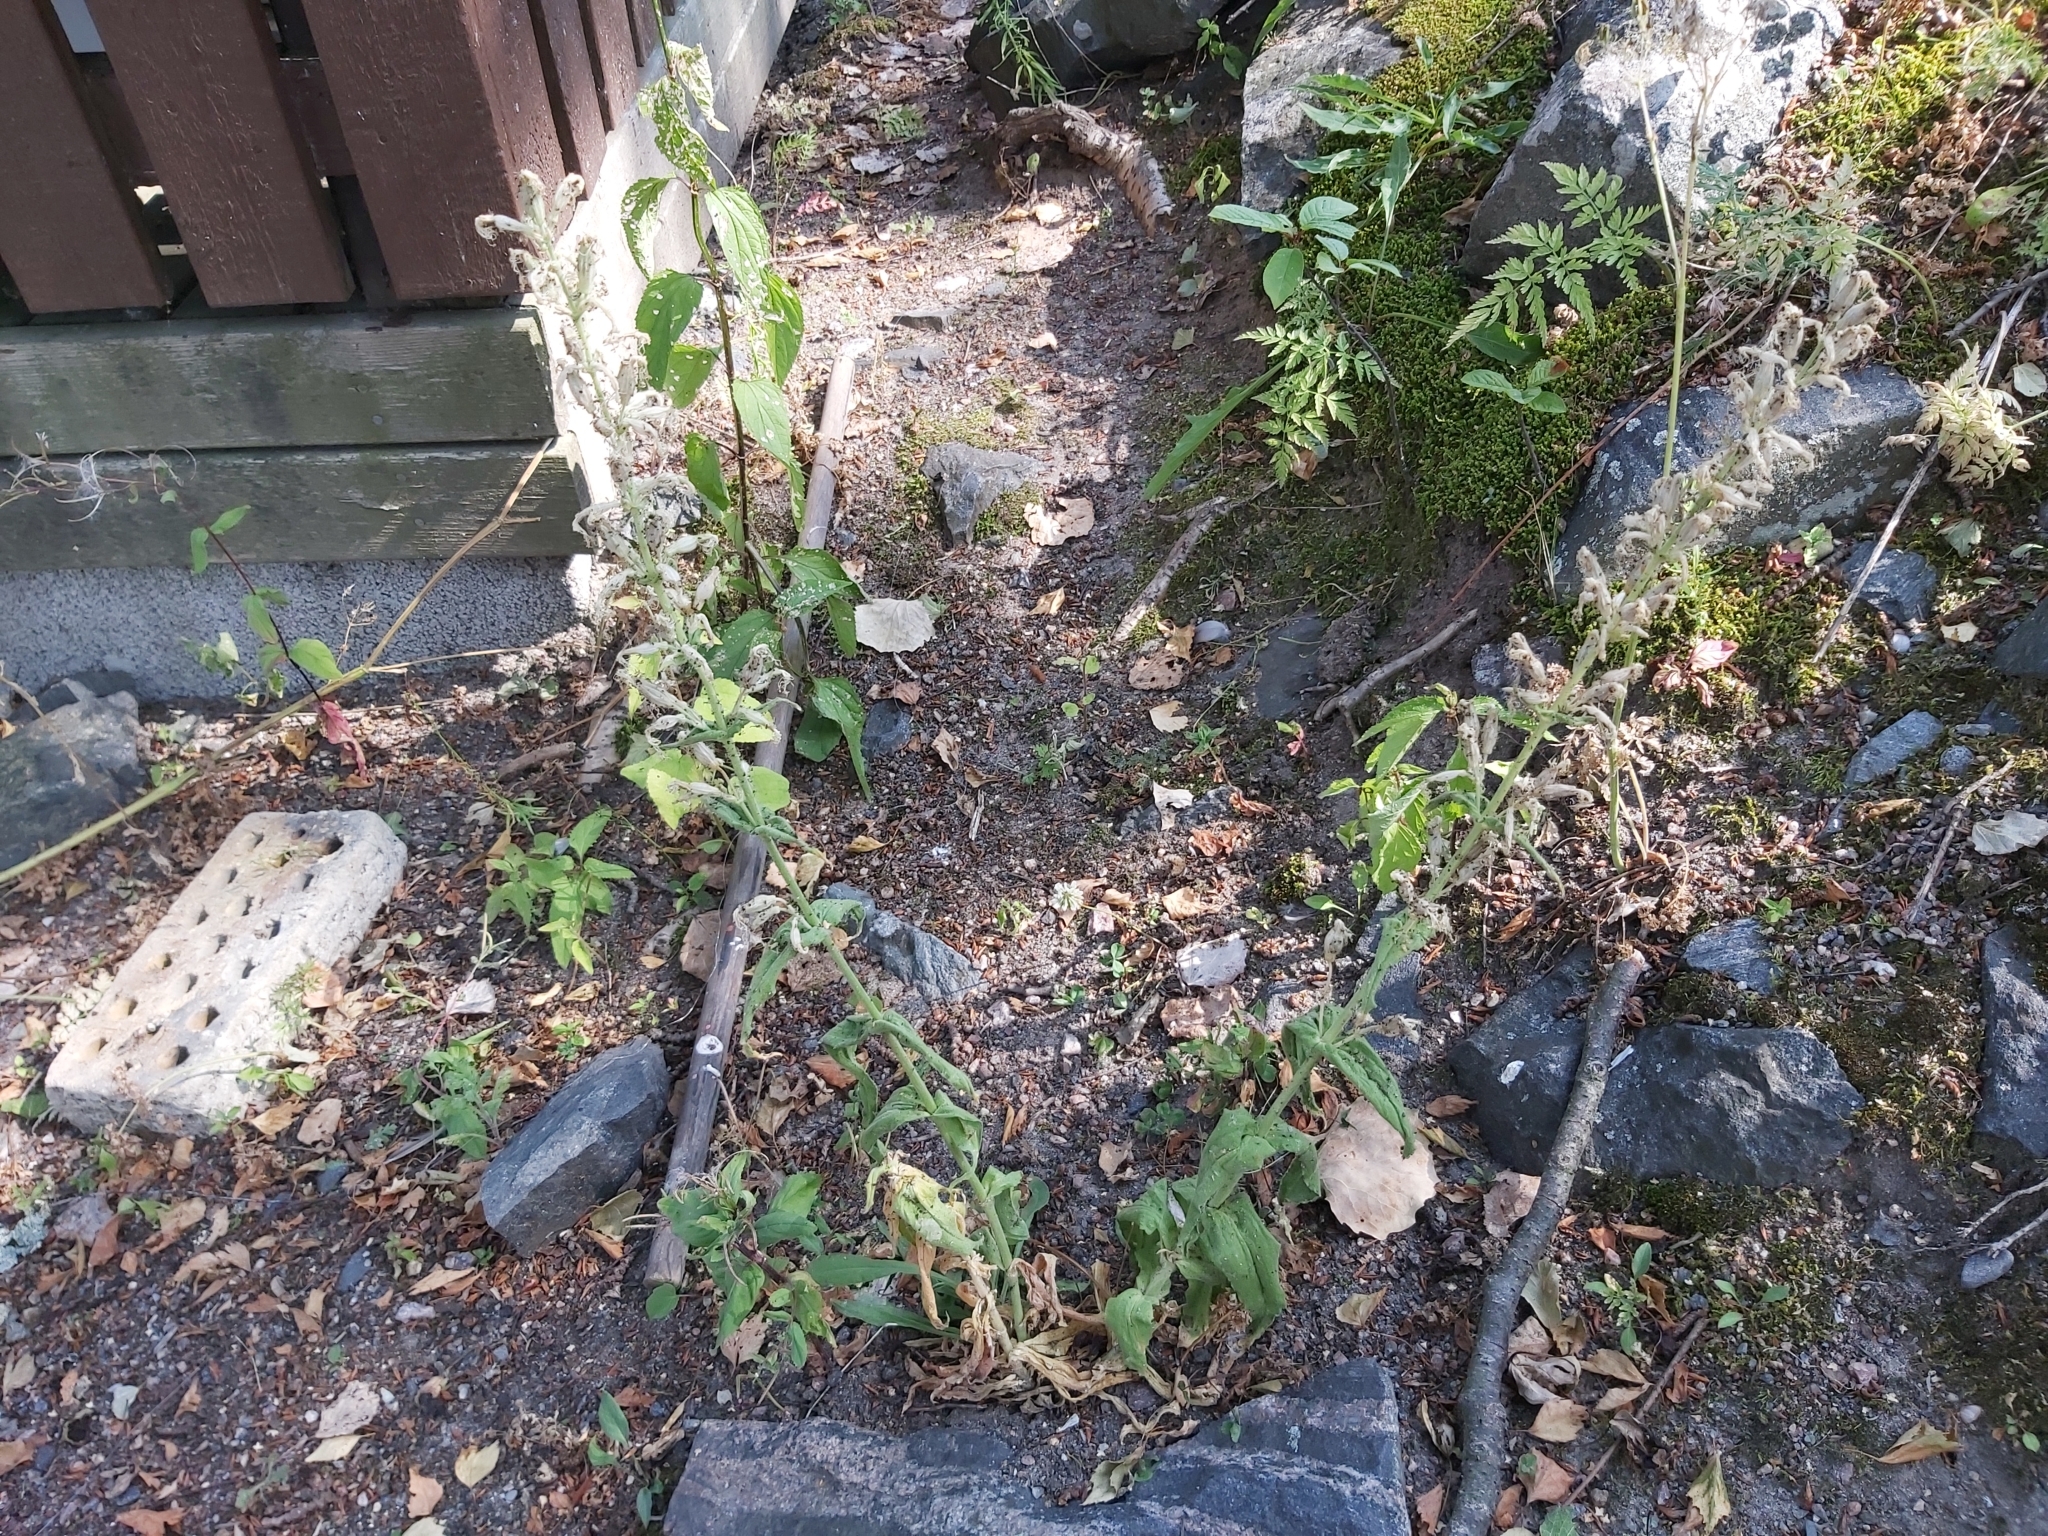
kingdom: Plantae
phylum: Tracheophyta
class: Magnoliopsida
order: Caryophyllales
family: Caryophyllaceae
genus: Silene
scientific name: Silene viscosa
